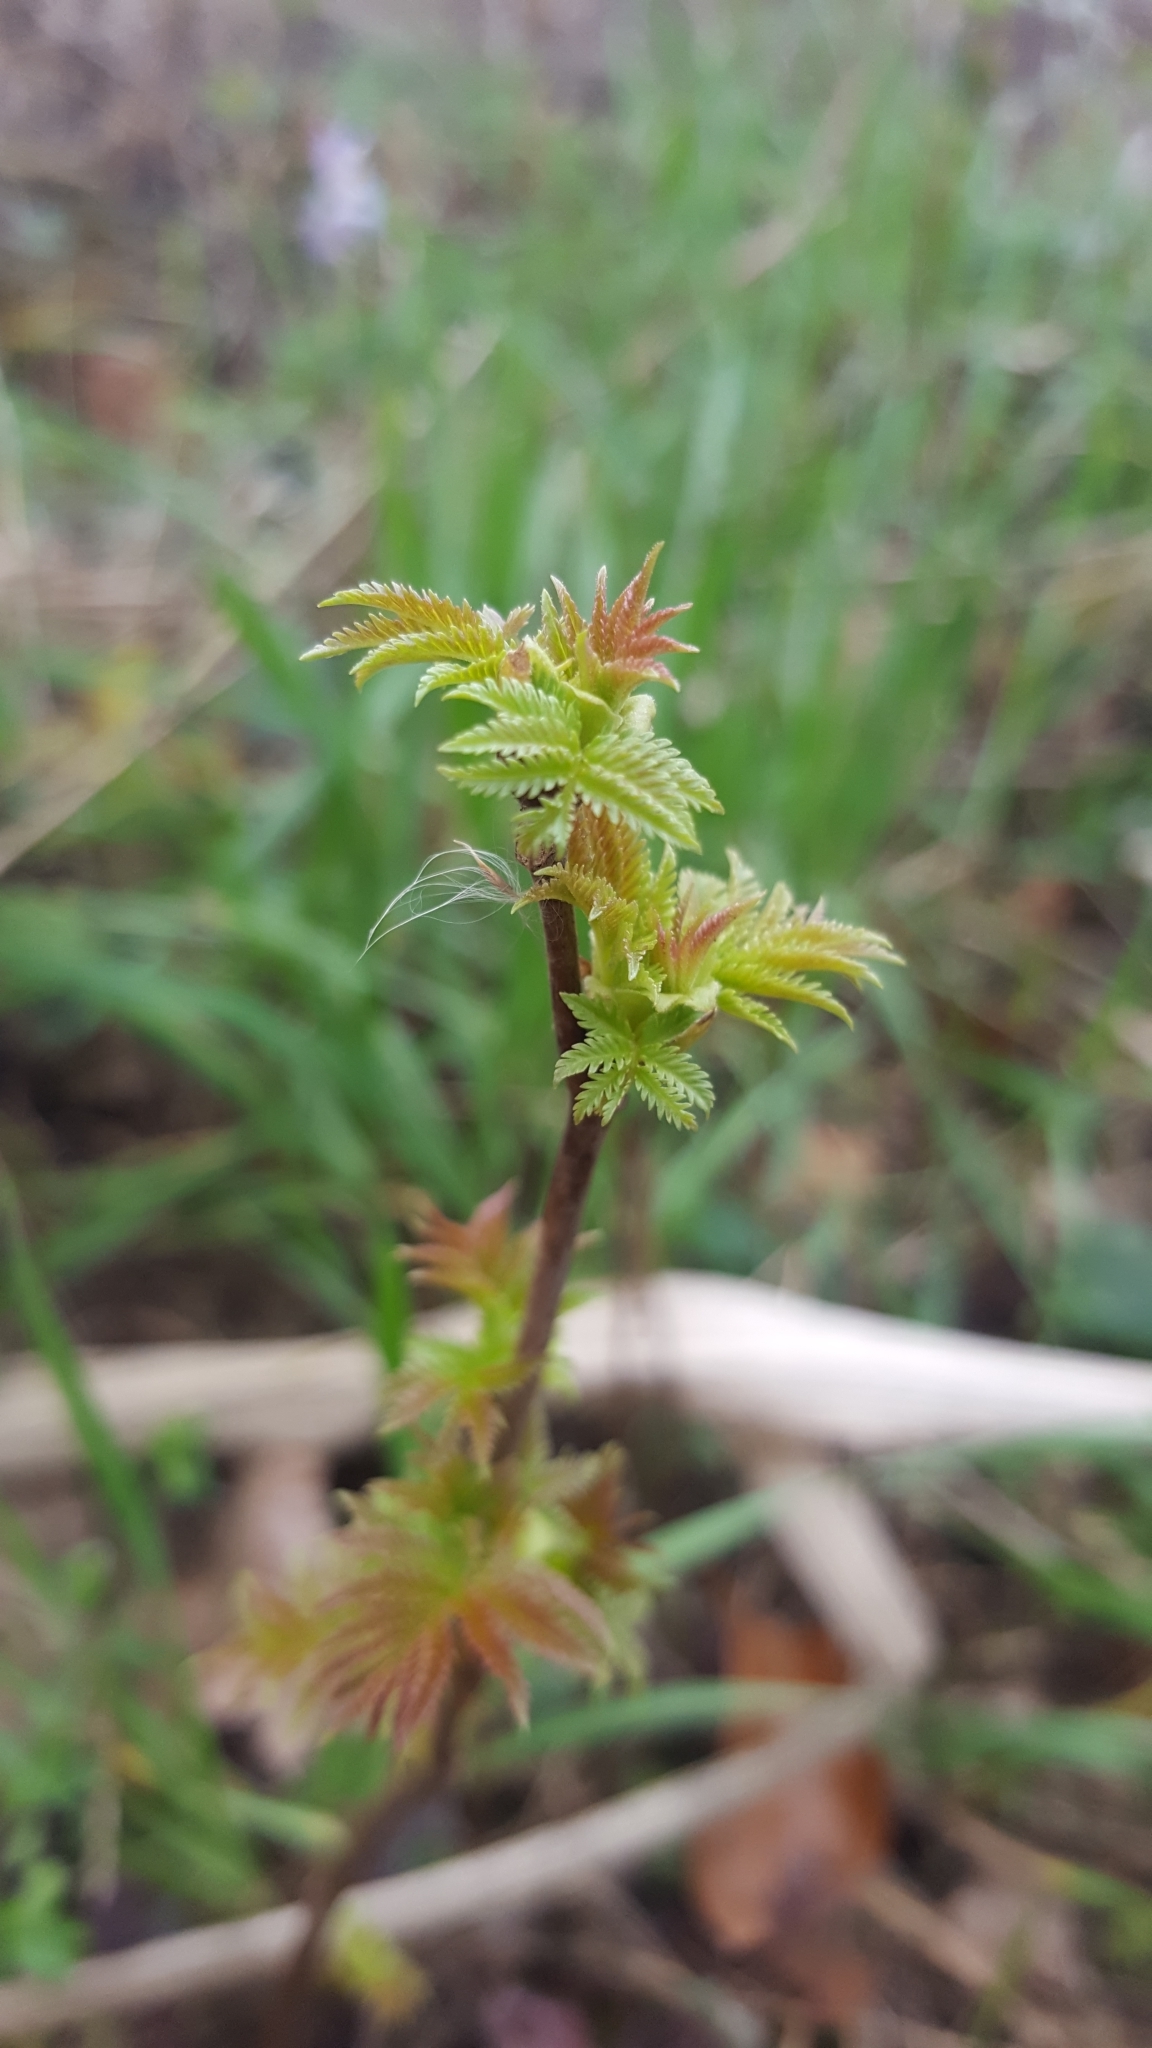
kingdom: Plantae
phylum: Tracheophyta
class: Magnoliopsida
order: Rosales
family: Rosaceae
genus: Sorbaria
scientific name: Sorbaria sorbifolia
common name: False spiraea
